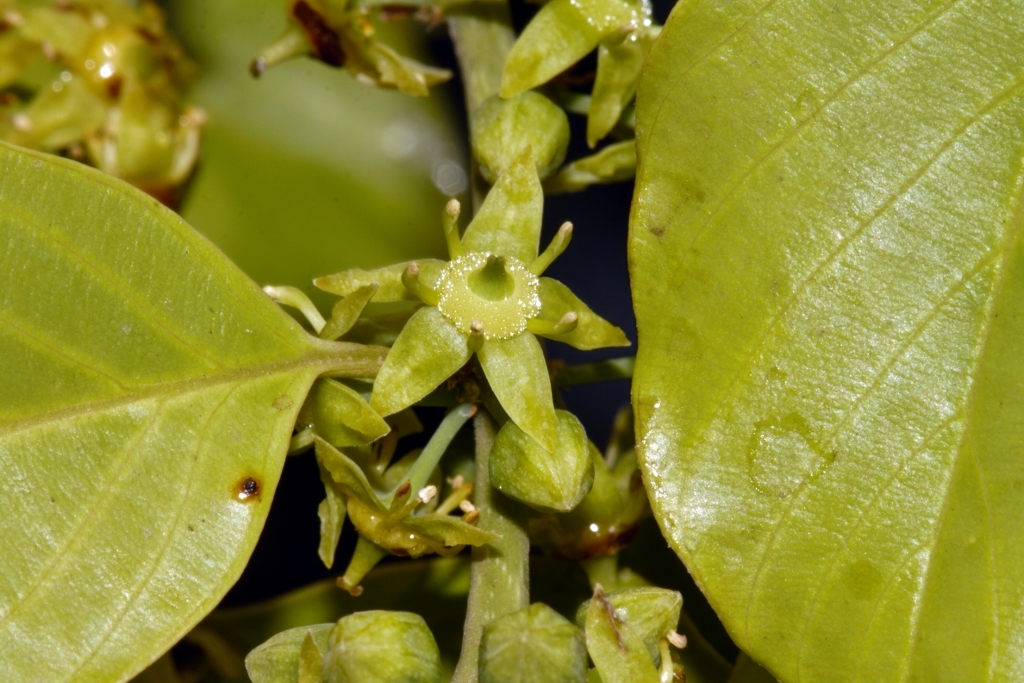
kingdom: Plantae
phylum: Tracheophyta
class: Magnoliopsida
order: Rosales
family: Rhamnaceae
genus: Phyllogeiton
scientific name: Phyllogeiton discolor
